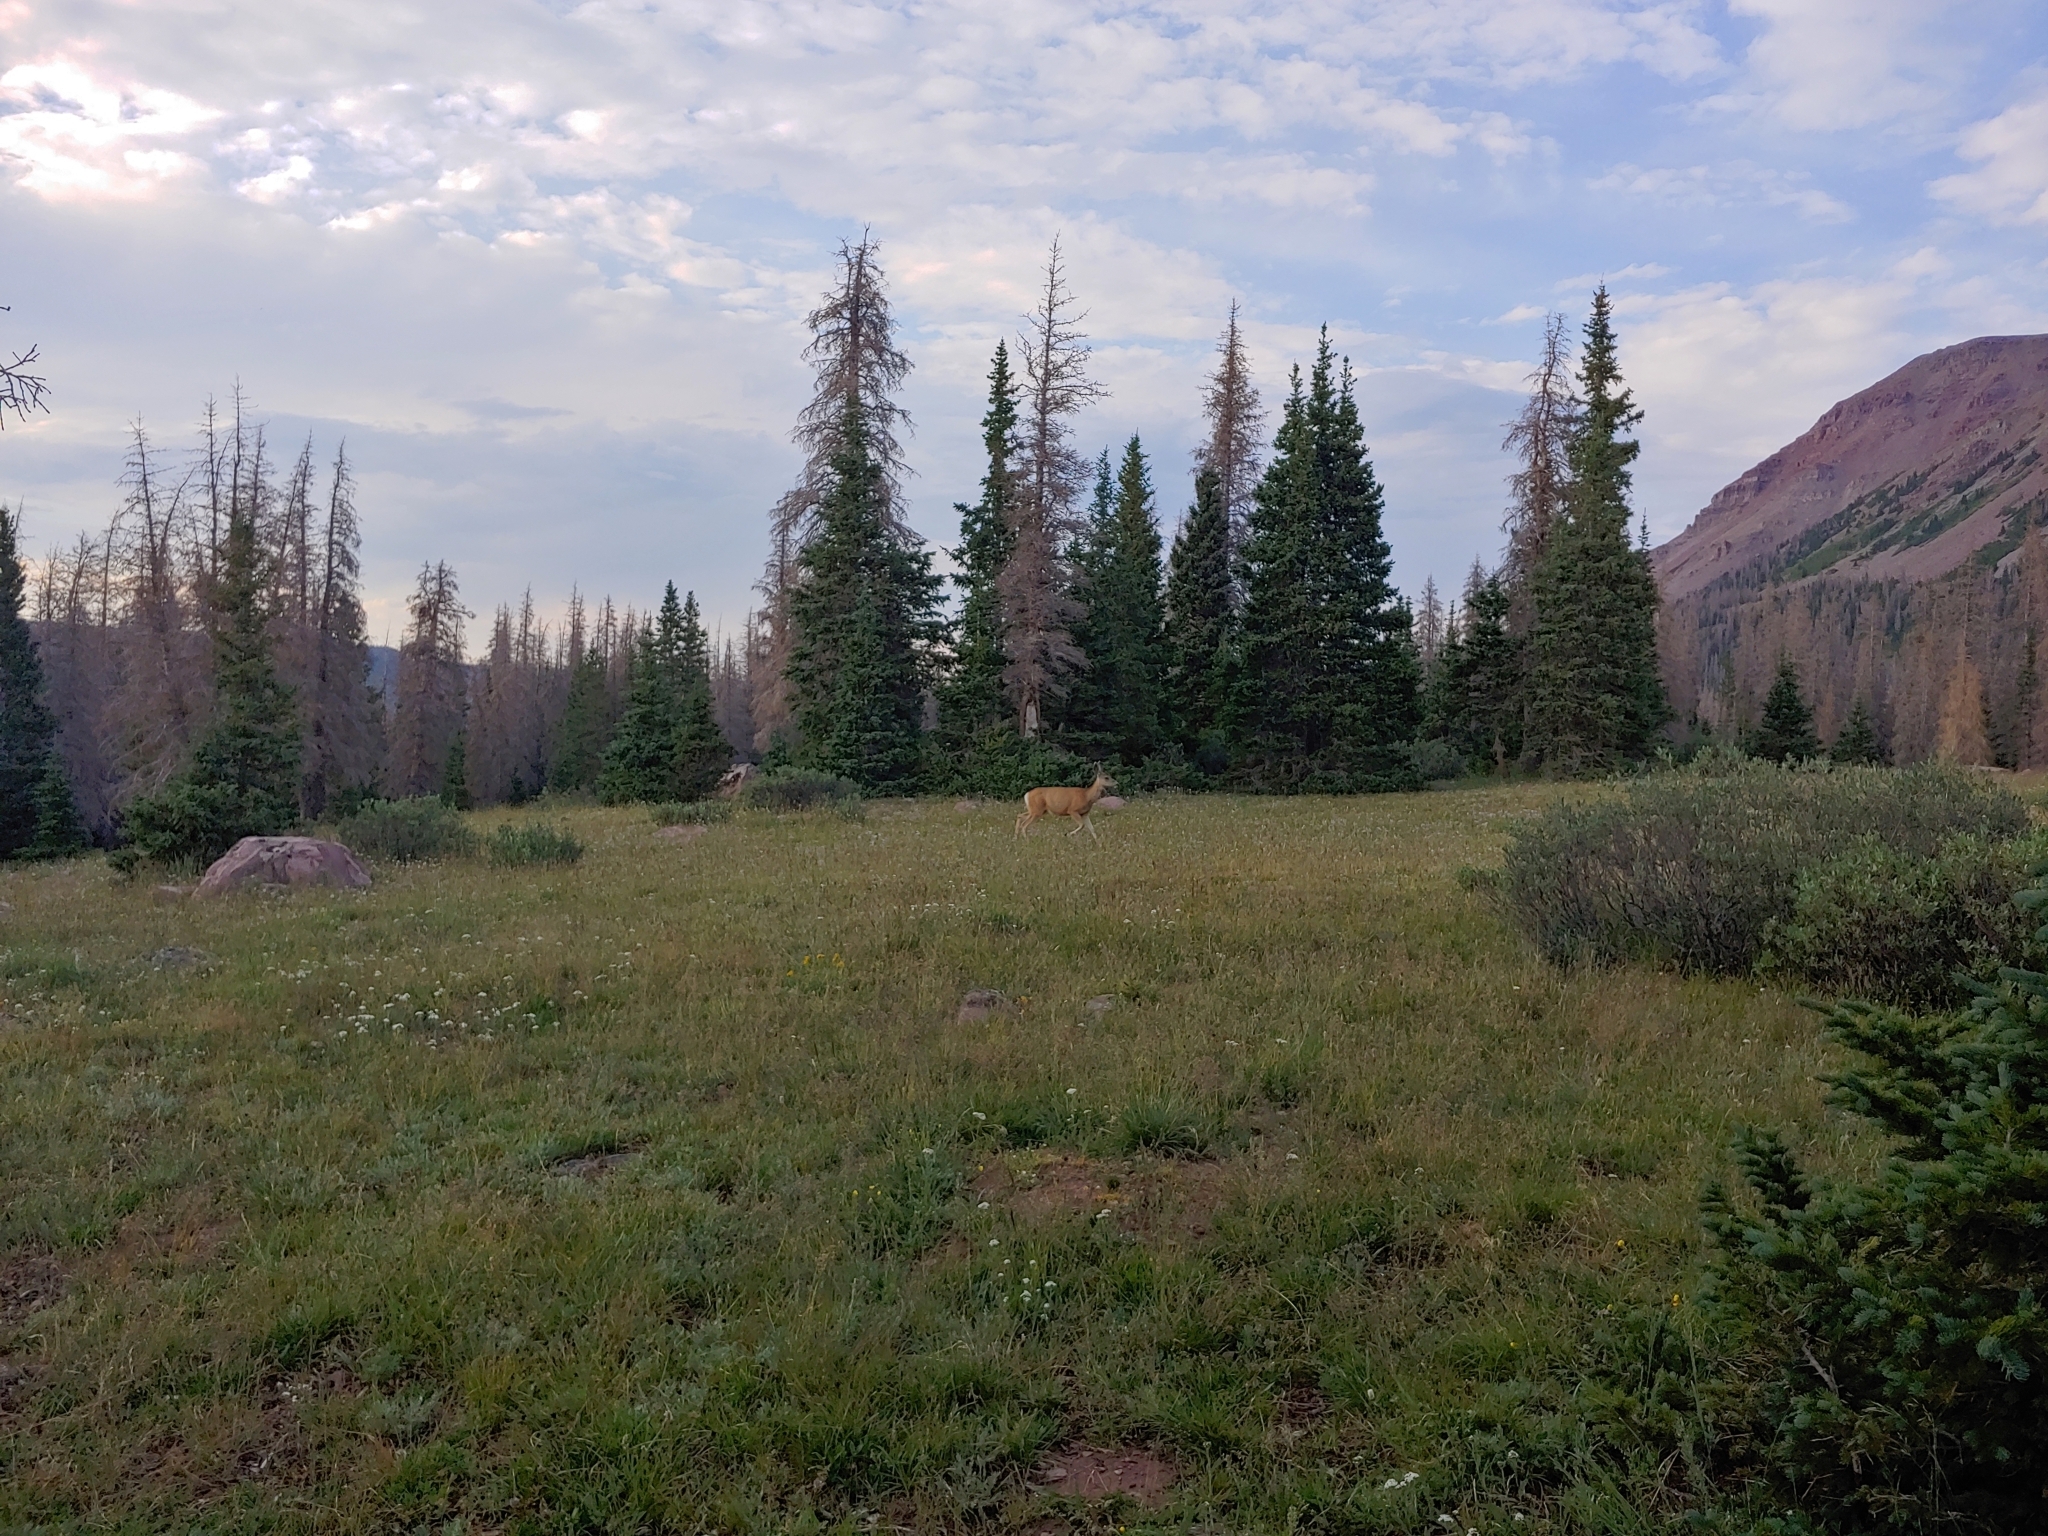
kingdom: Animalia
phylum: Chordata
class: Mammalia
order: Artiodactyla
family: Cervidae
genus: Odocoileus
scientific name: Odocoileus hemionus
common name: Mule deer
